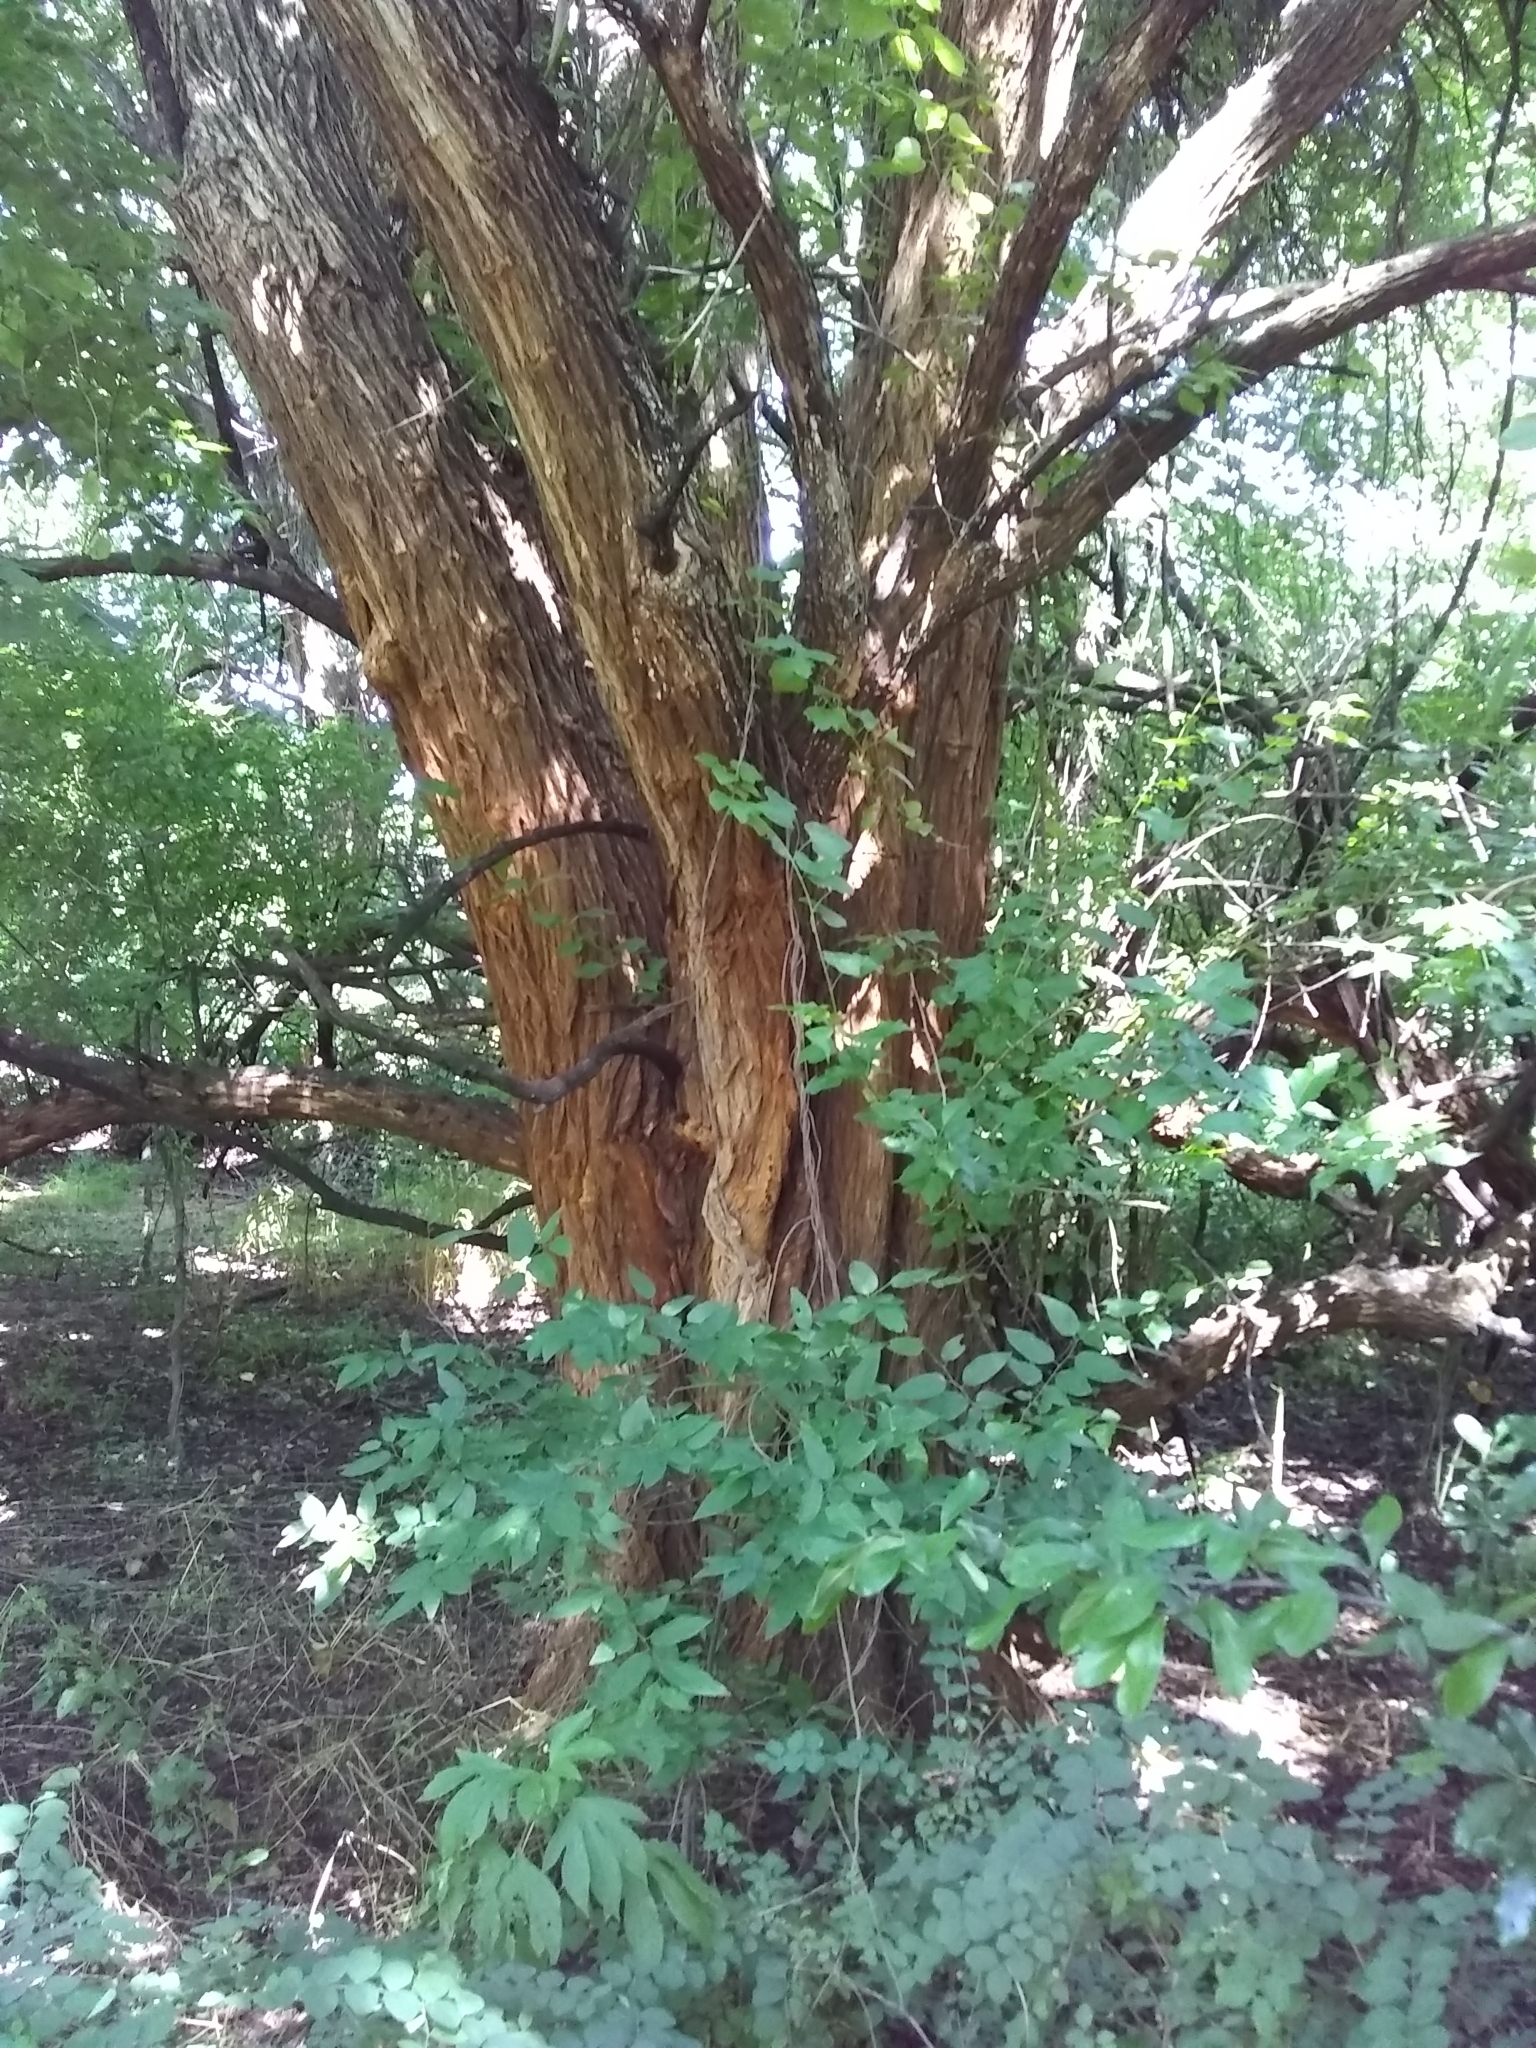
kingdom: Plantae
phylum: Tracheophyta
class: Magnoliopsida
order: Rosales
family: Moraceae
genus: Maclura
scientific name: Maclura pomifera
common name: Osage-orange
